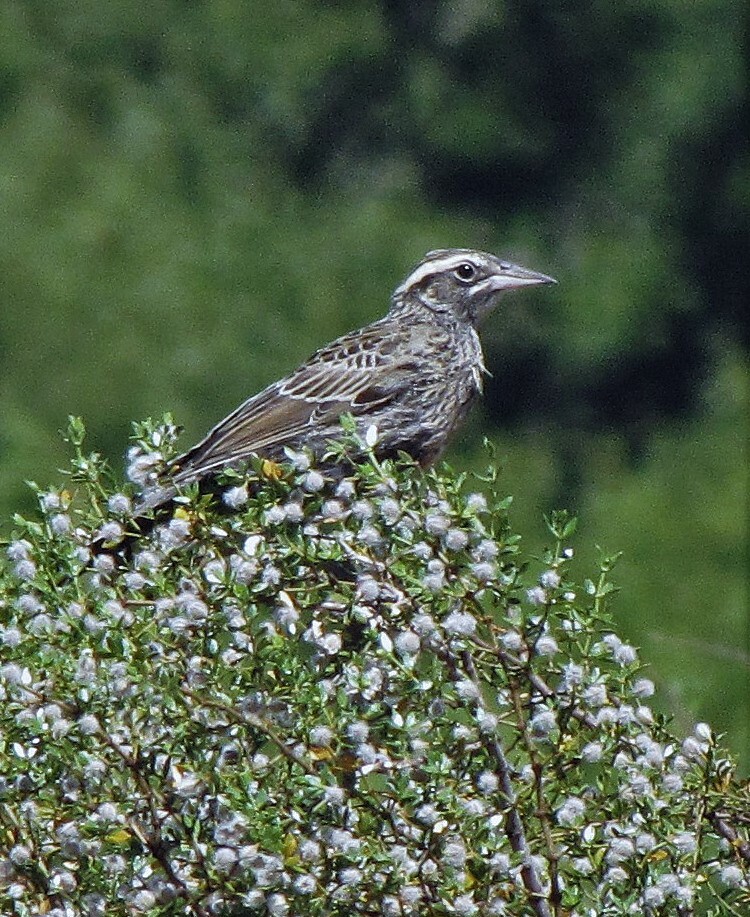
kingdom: Animalia
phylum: Chordata
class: Aves
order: Passeriformes
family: Icteridae
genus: Sturnella
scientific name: Sturnella loyca
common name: Long-tailed meadowlark
